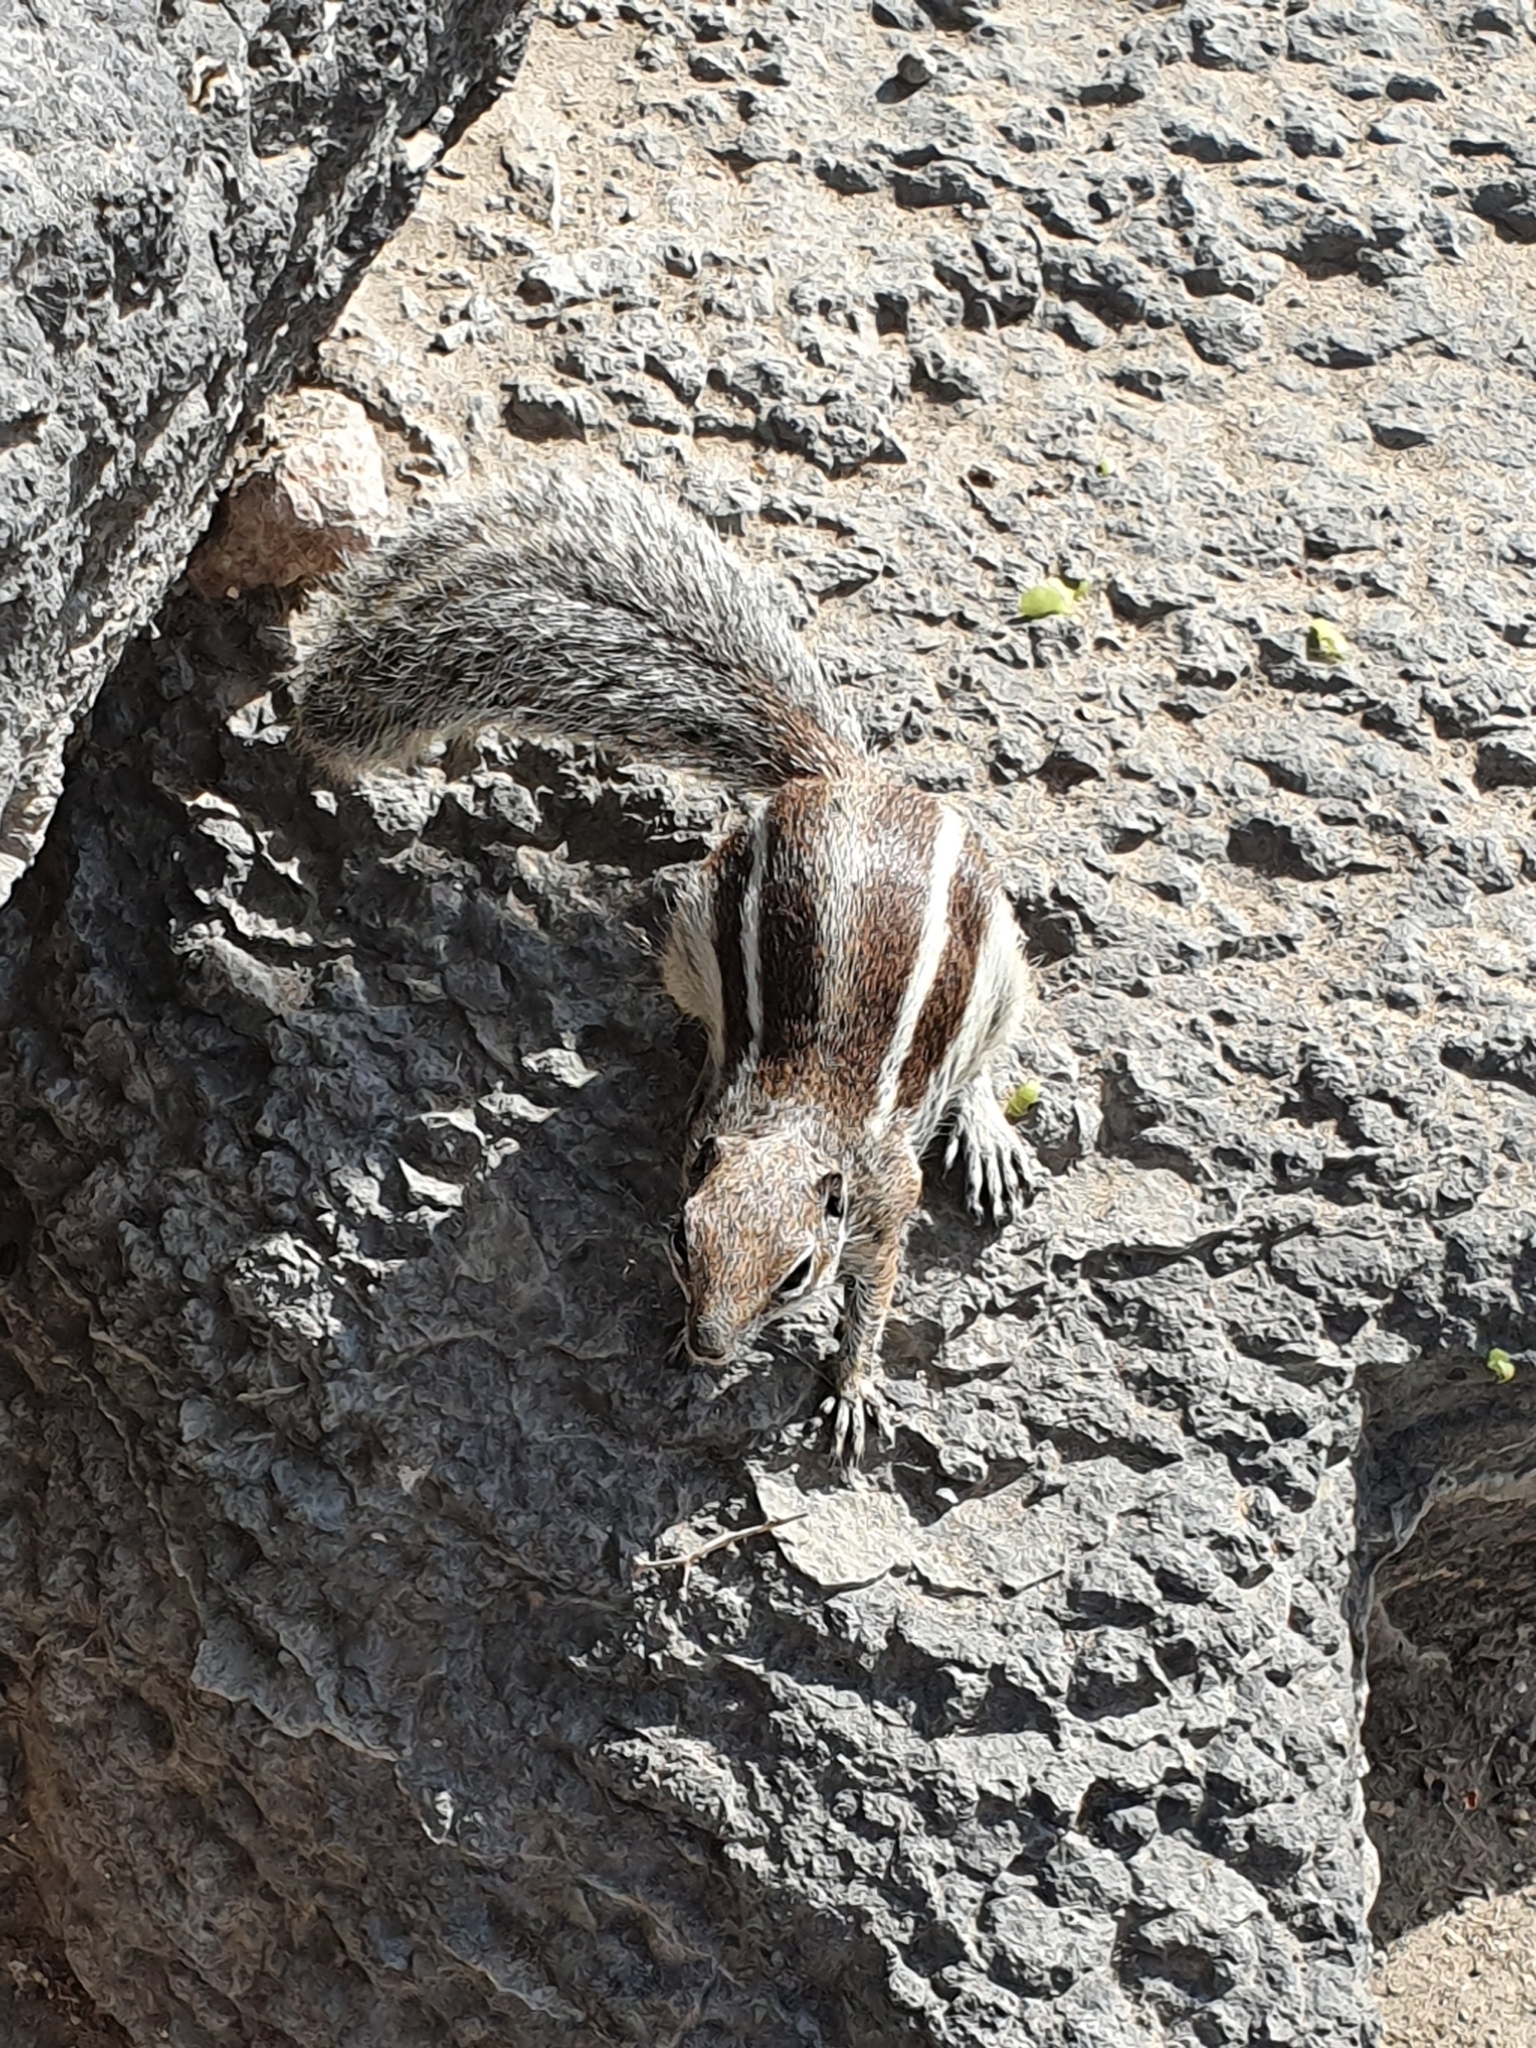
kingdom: Animalia
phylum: Chordata
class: Mammalia
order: Rodentia
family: Sciuridae
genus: Atlantoxerus
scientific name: Atlantoxerus getulus
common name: Barbary ground squirrel
